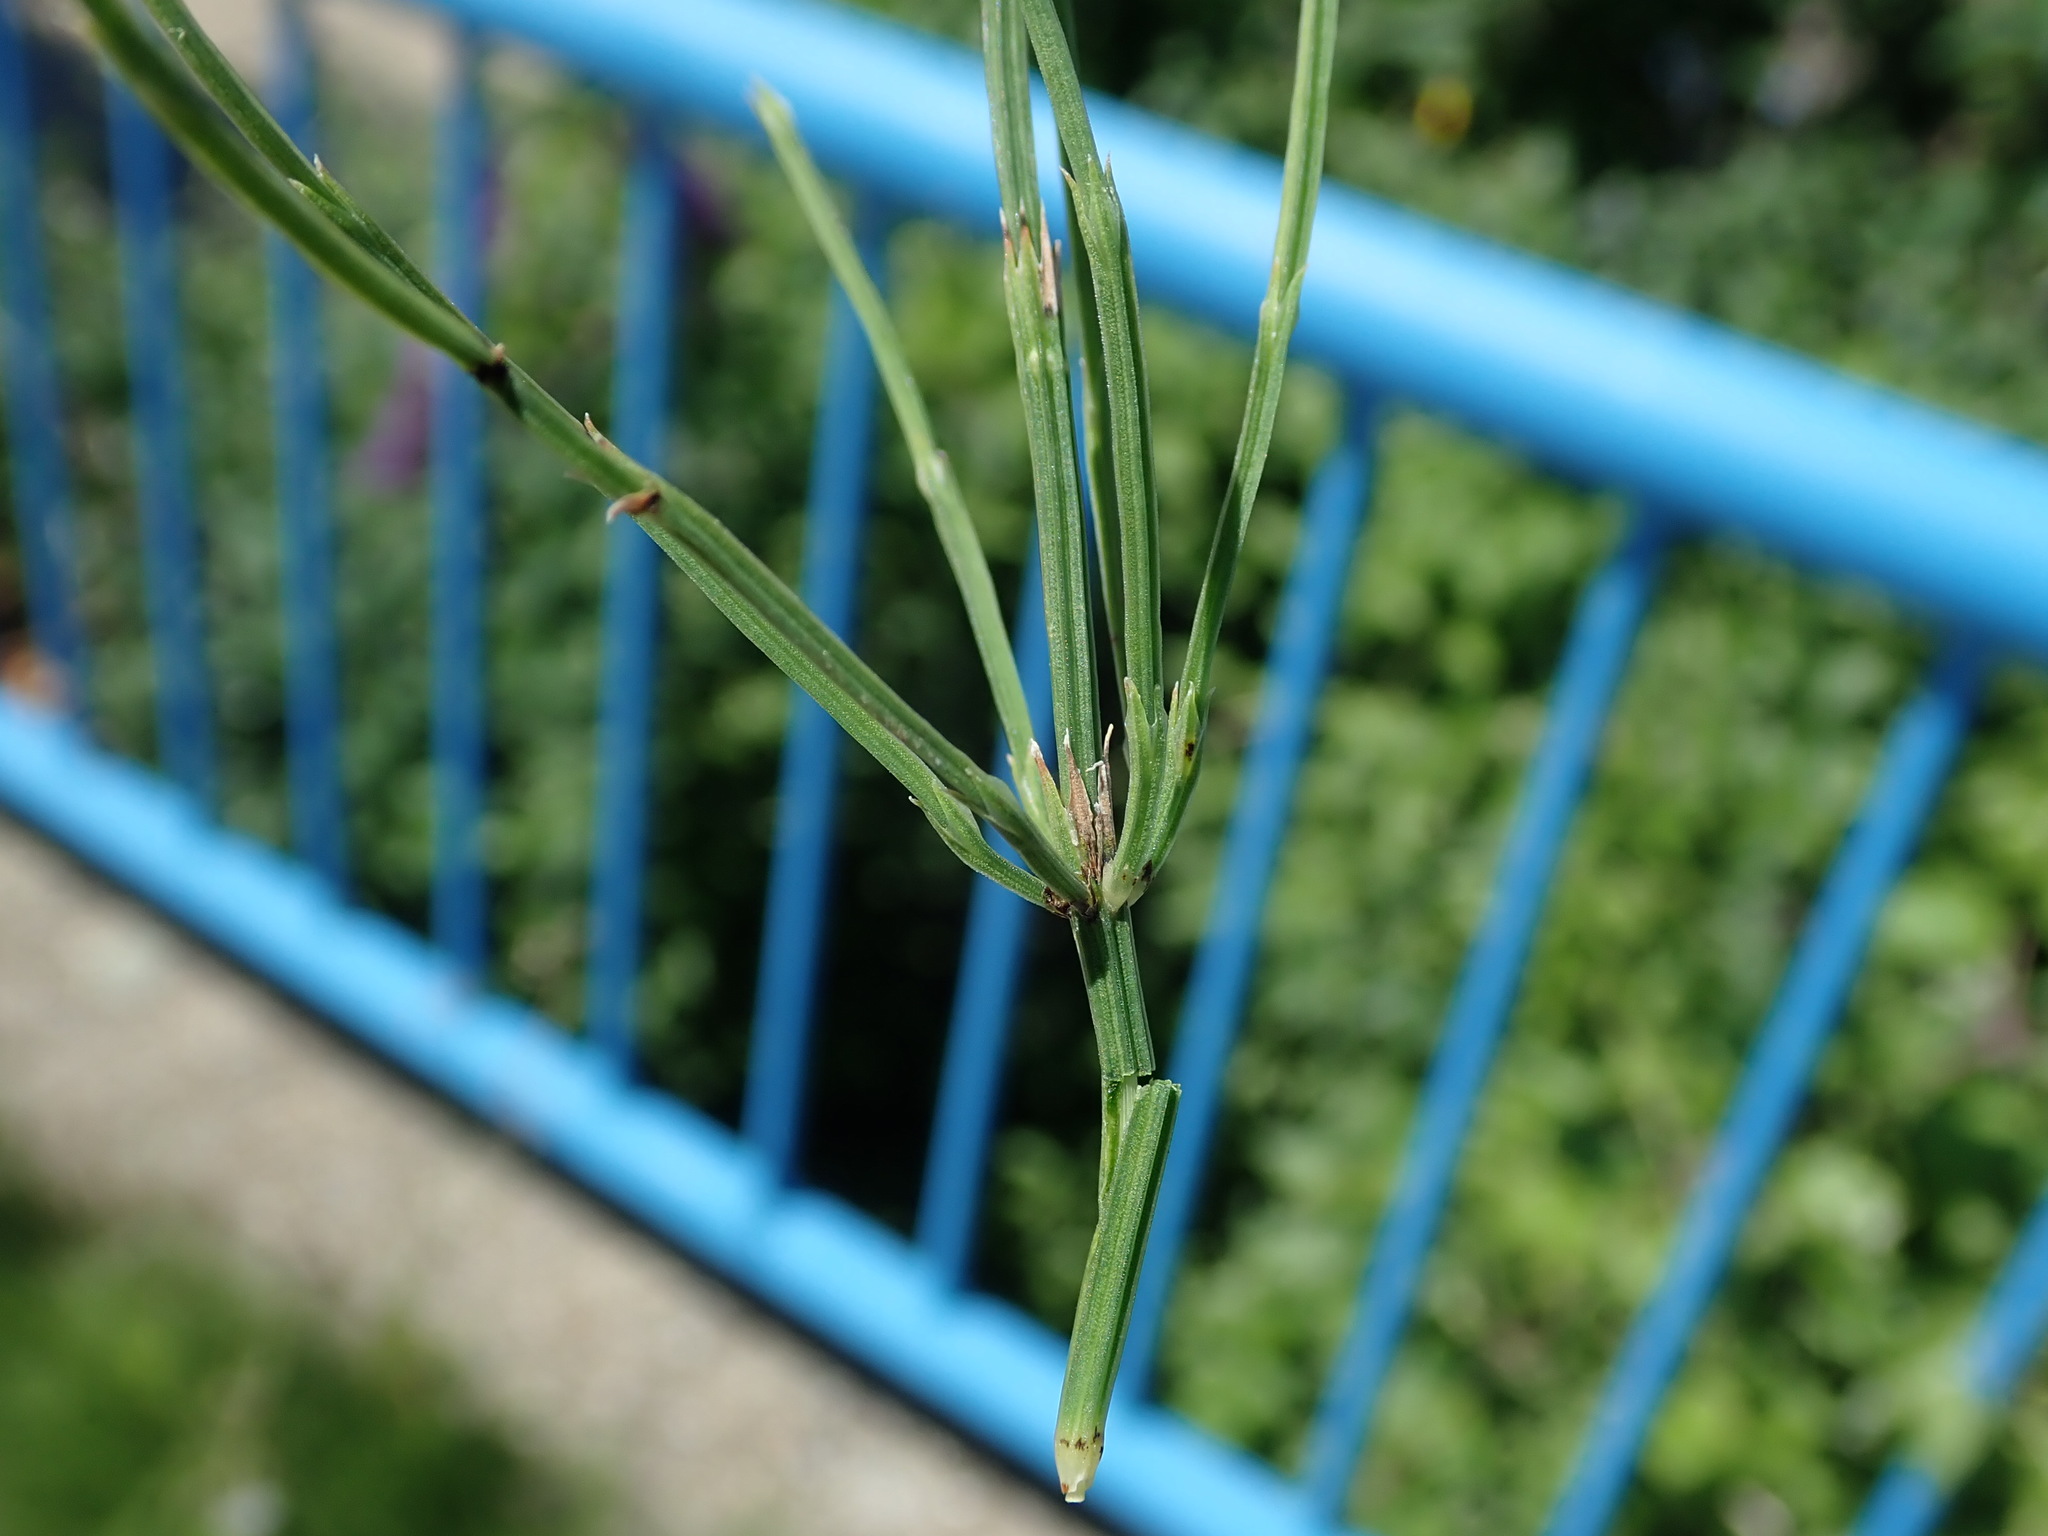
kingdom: Plantae
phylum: Tracheophyta
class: Polypodiopsida
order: Equisetales
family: Equisetaceae
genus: Equisetum
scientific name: Equisetum arvense
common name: Field horsetail
